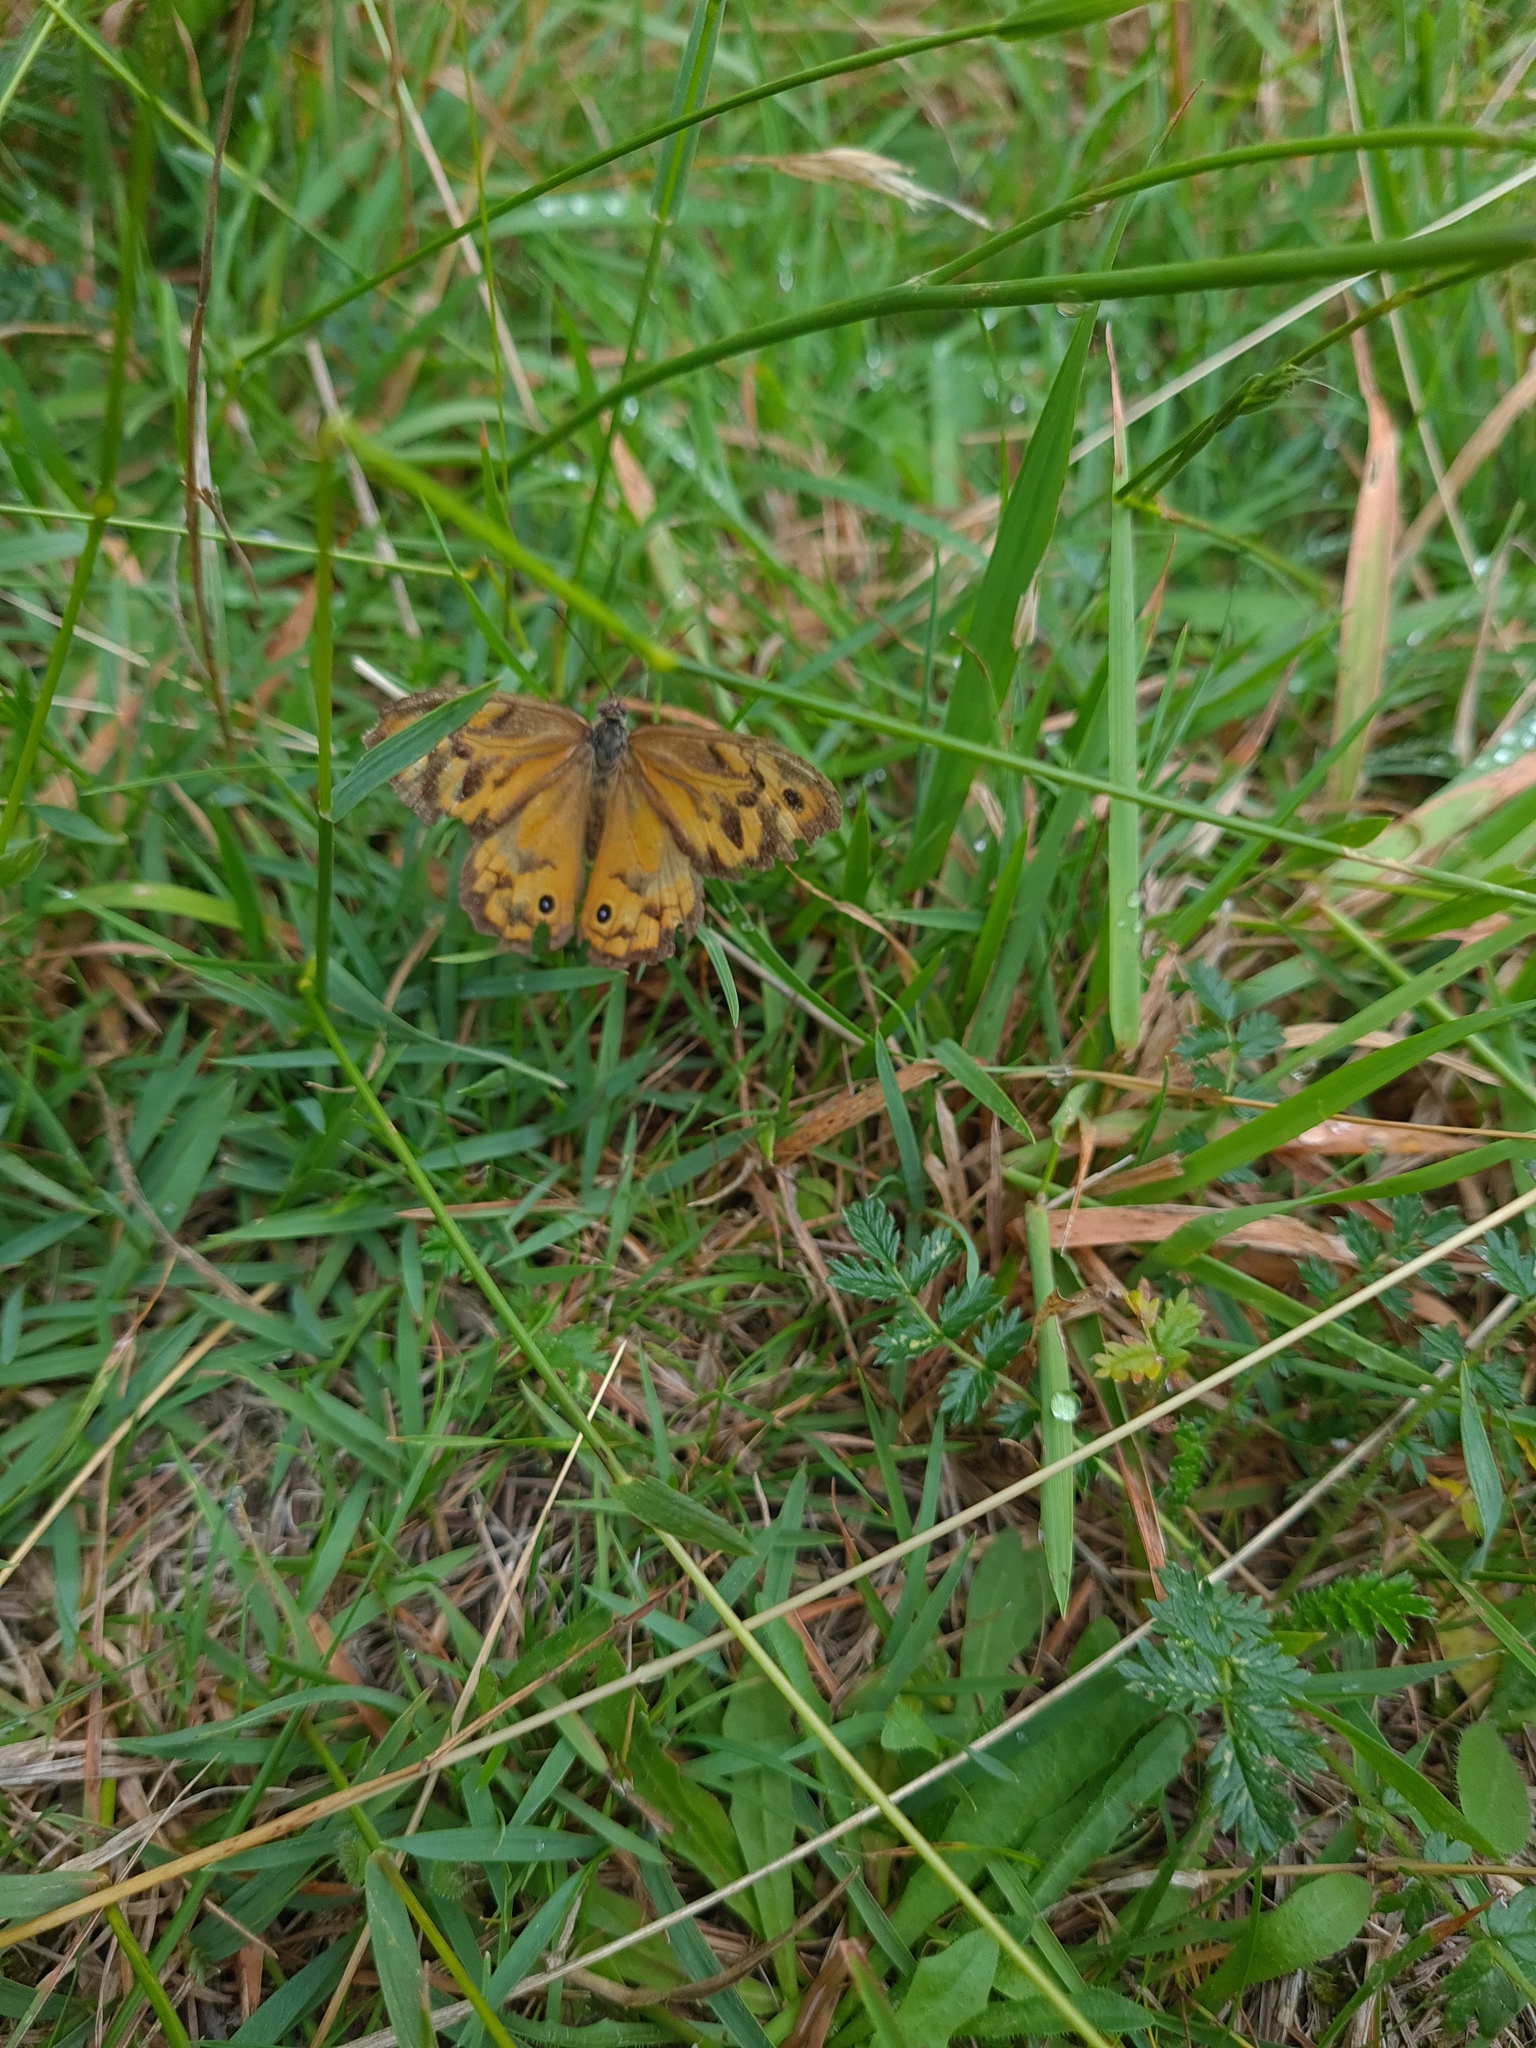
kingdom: Animalia
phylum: Arthropoda
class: Insecta
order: Lepidoptera
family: Nymphalidae
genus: Heteronympha
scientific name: Heteronympha merope
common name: Common brown
